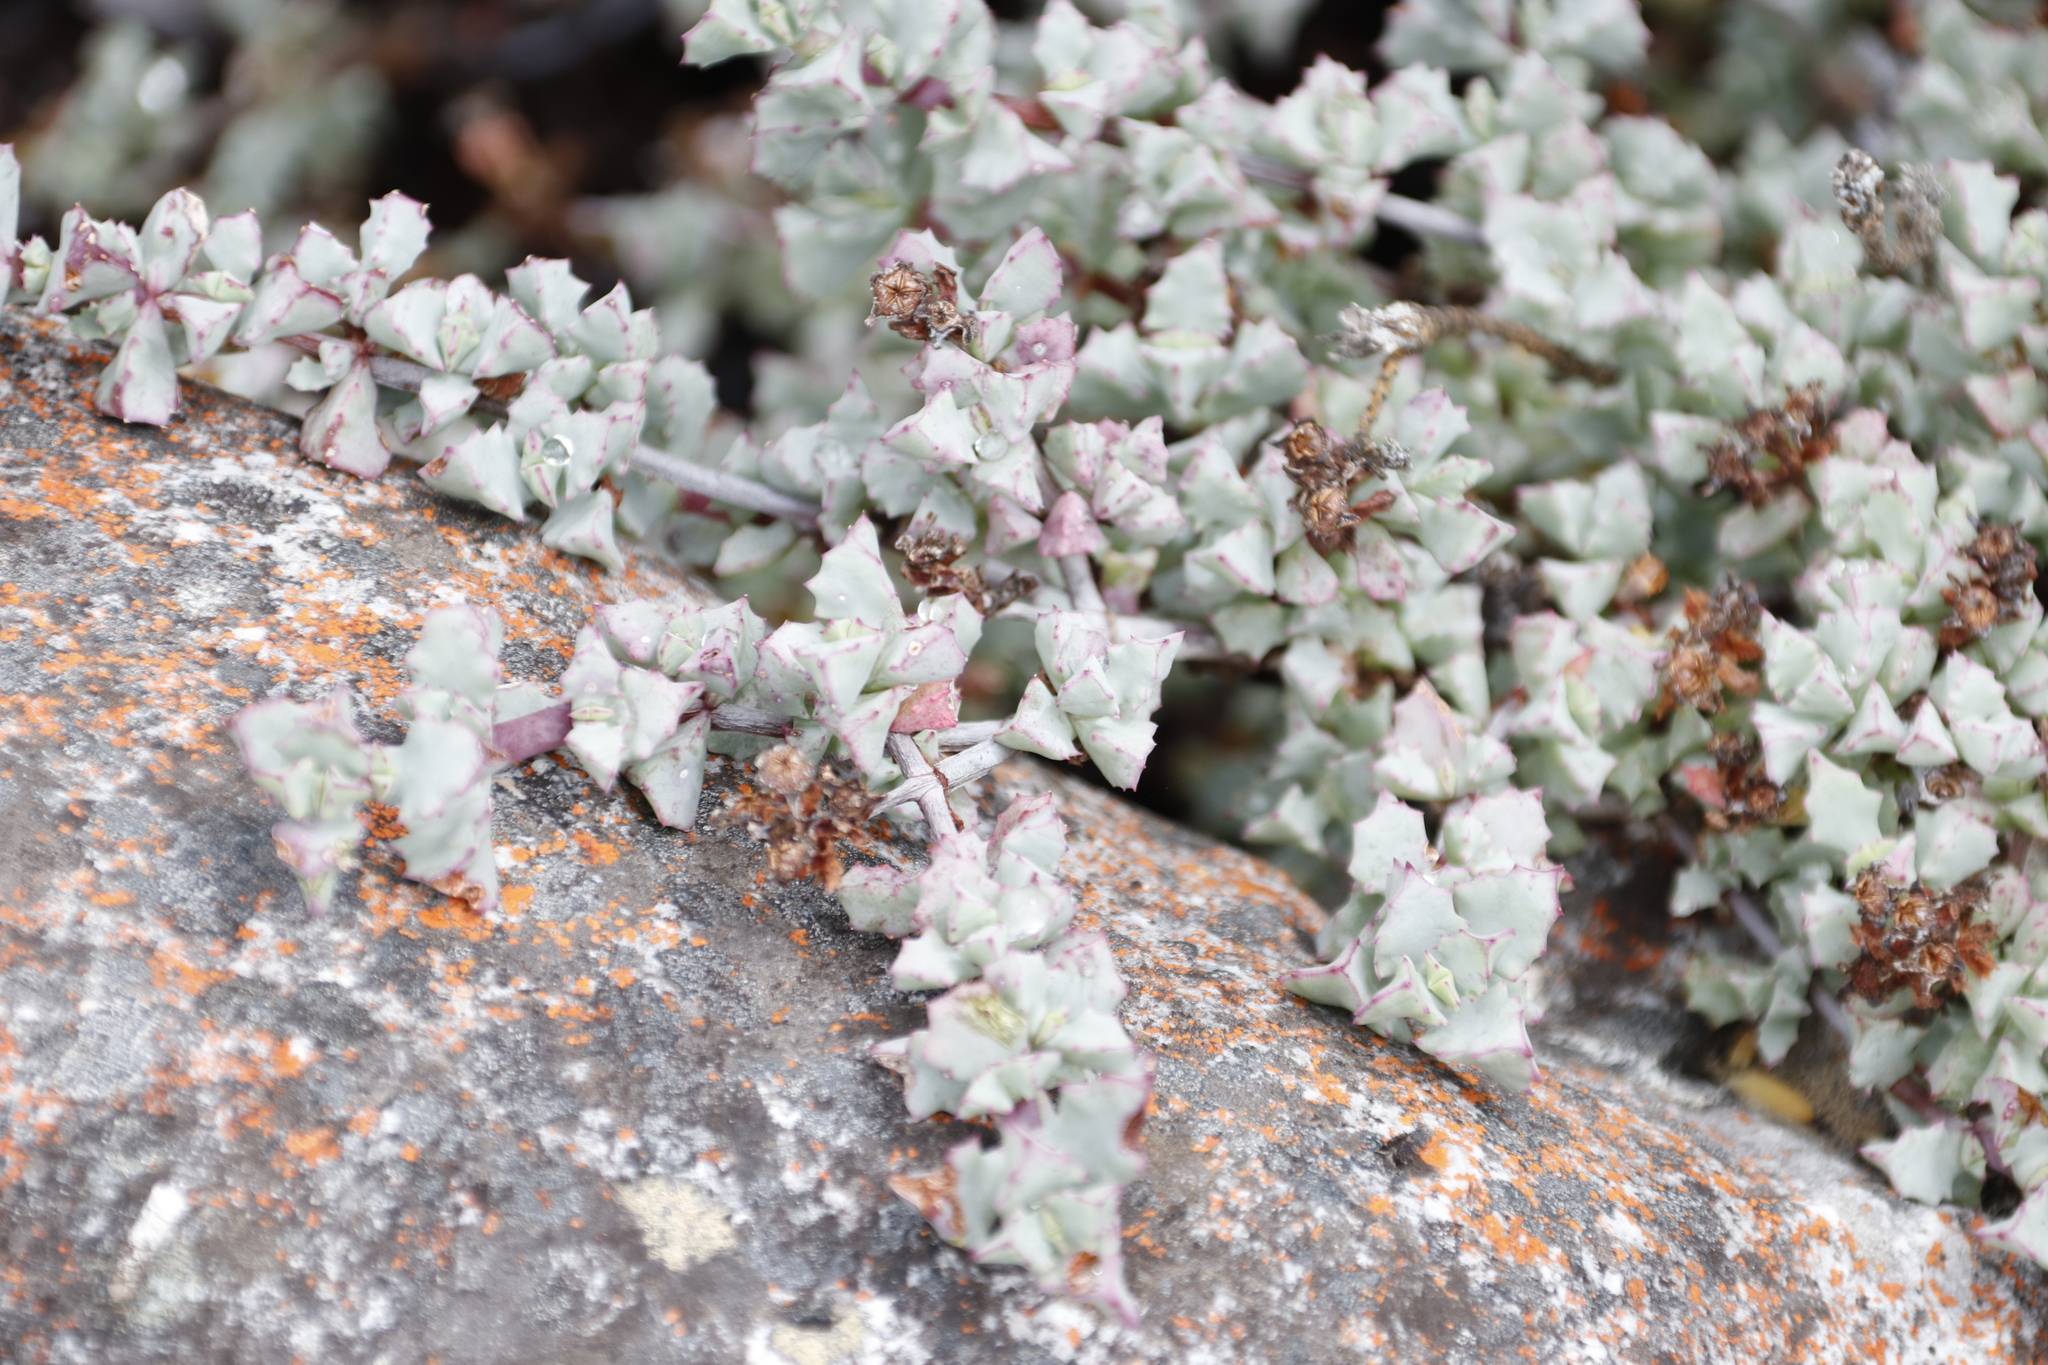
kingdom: Plantae
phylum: Tracheophyta
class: Magnoliopsida
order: Caryophyllales
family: Aizoaceae
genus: Oscularia
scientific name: Oscularia deltoides
